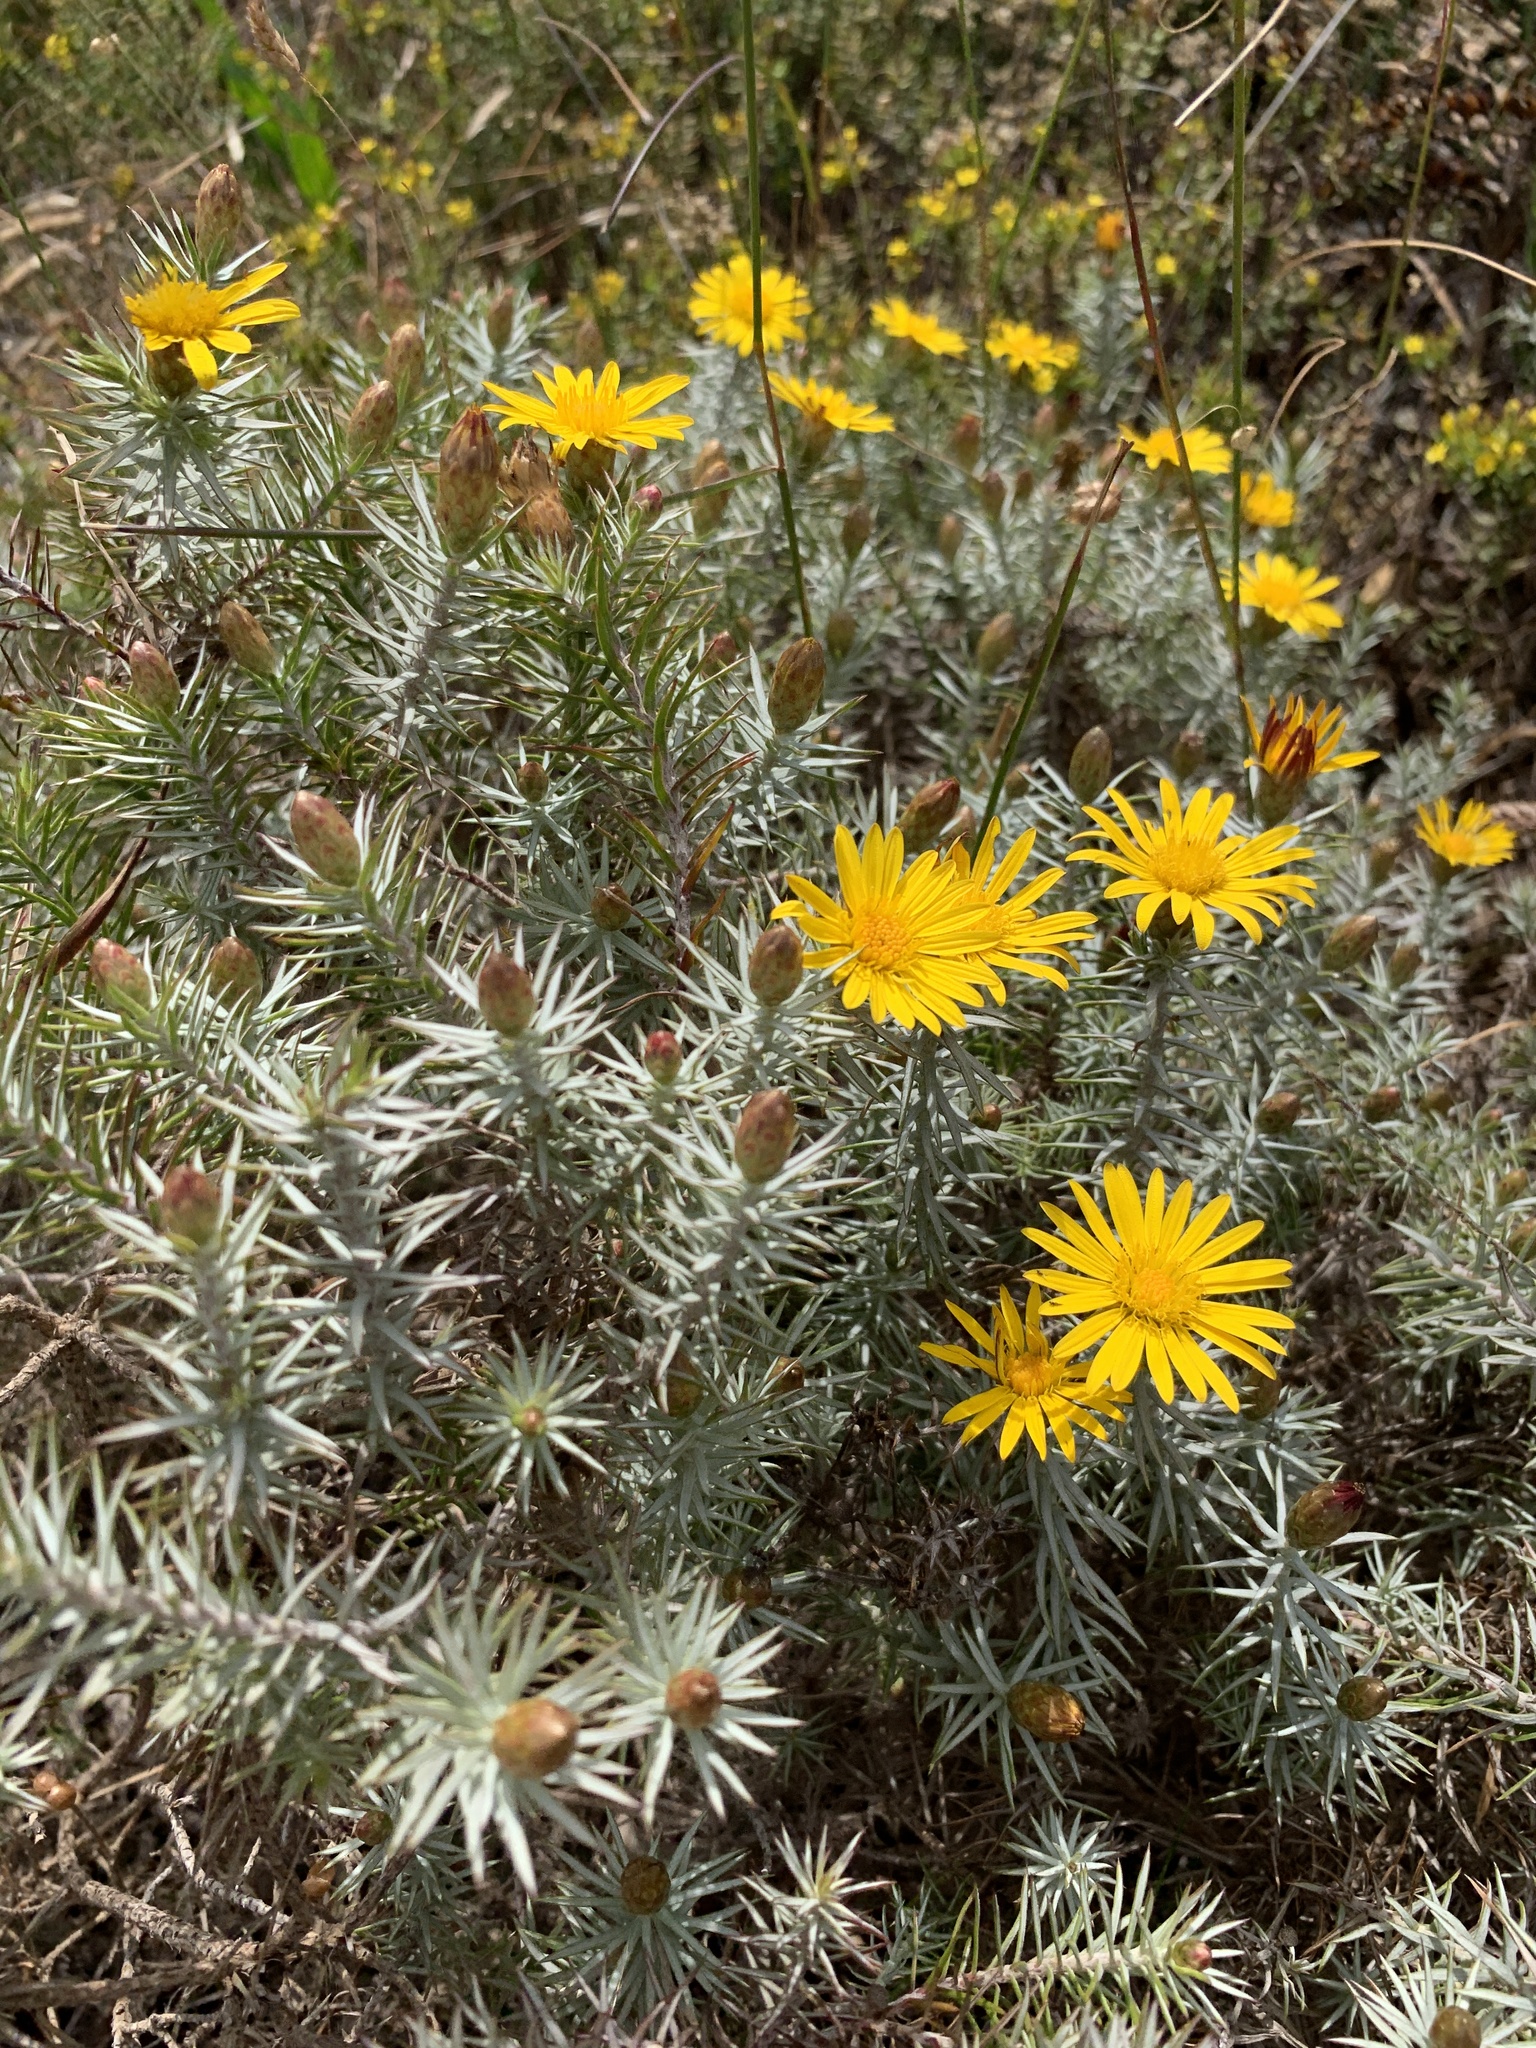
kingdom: Plantae
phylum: Tracheophyta
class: Magnoliopsida
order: Asterales
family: Asteraceae
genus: Oedera
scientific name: Oedera pungens
